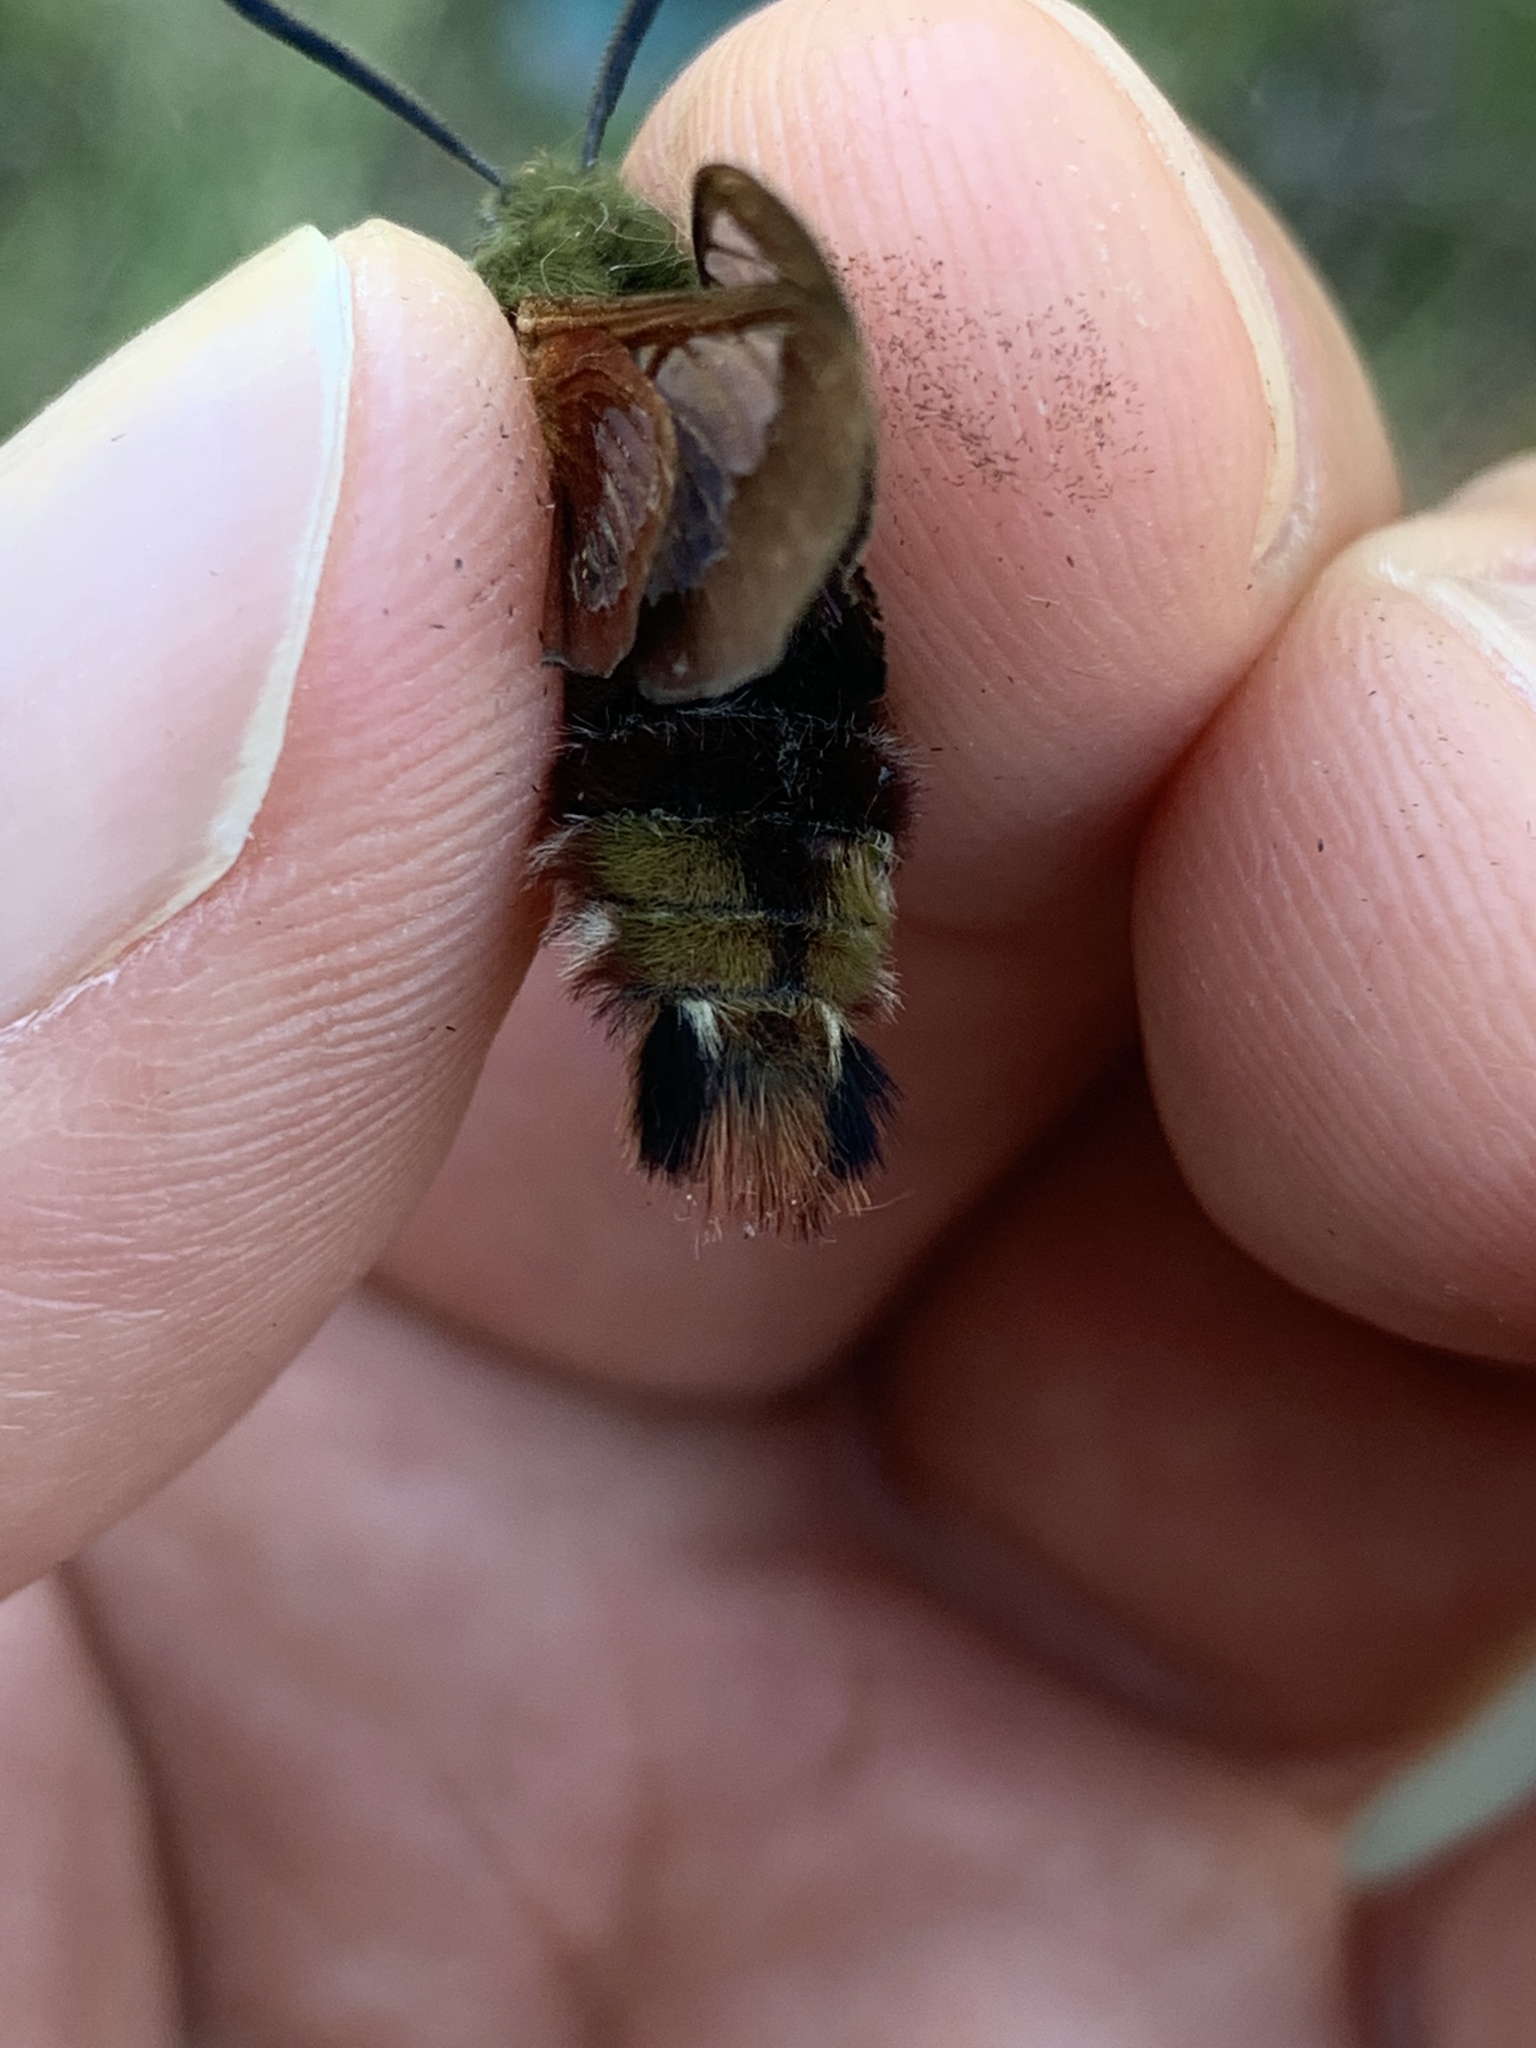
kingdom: Animalia
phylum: Arthropoda
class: Insecta
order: Lepidoptera
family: Sphingidae
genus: Hemaris
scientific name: Hemaris thysbe
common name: Common clear-wing
